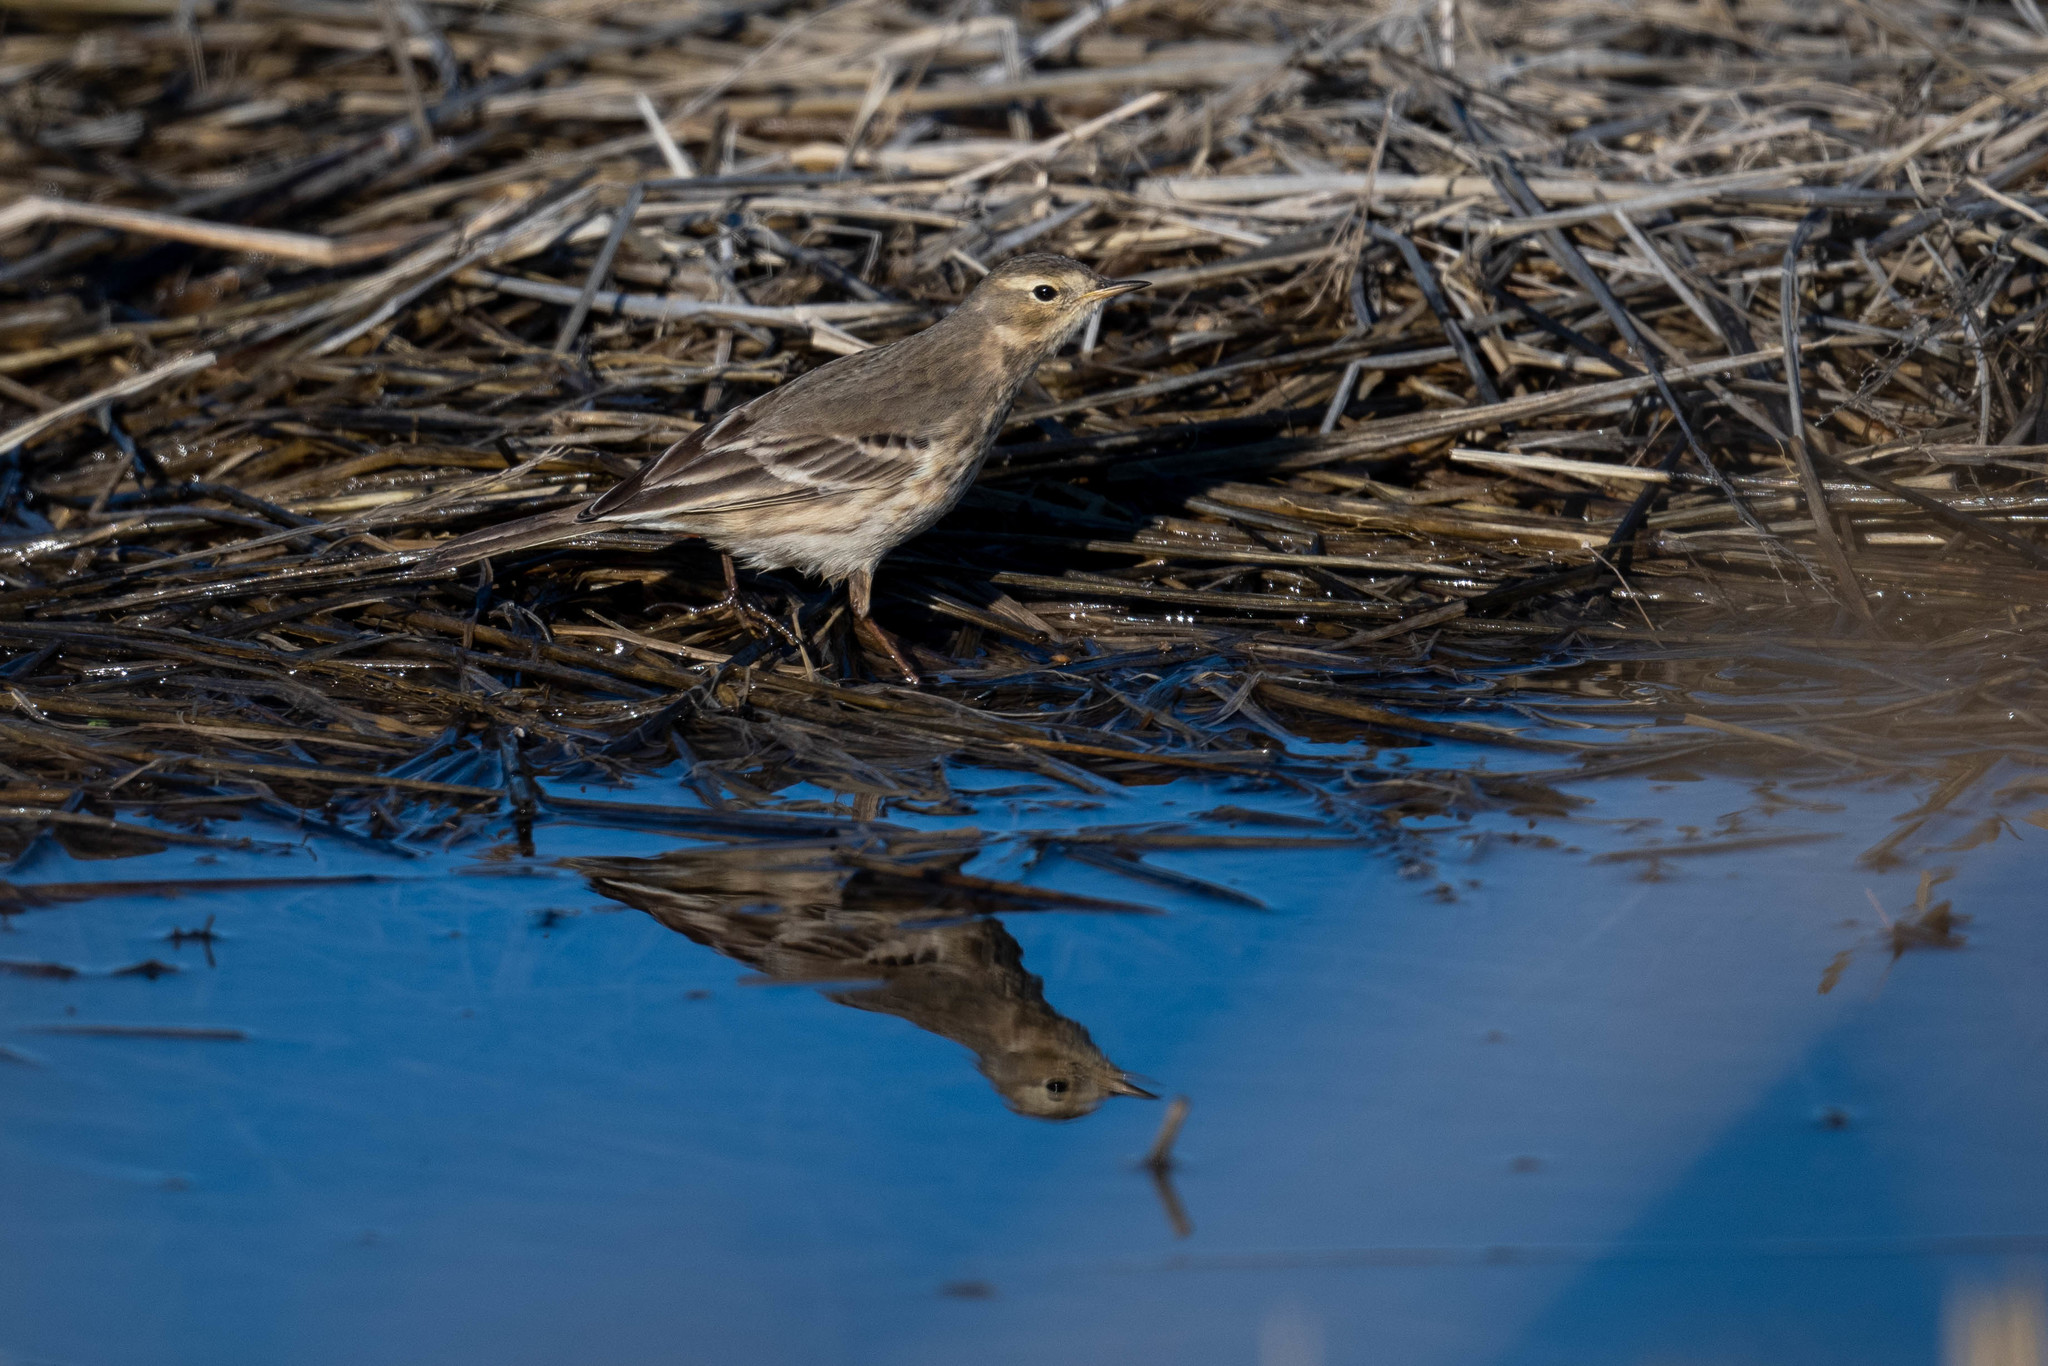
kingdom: Animalia
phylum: Chordata
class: Aves
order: Passeriformes
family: Motacillidae
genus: Anthus
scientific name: Anthus rubescens
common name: Buff-bellied pipit
